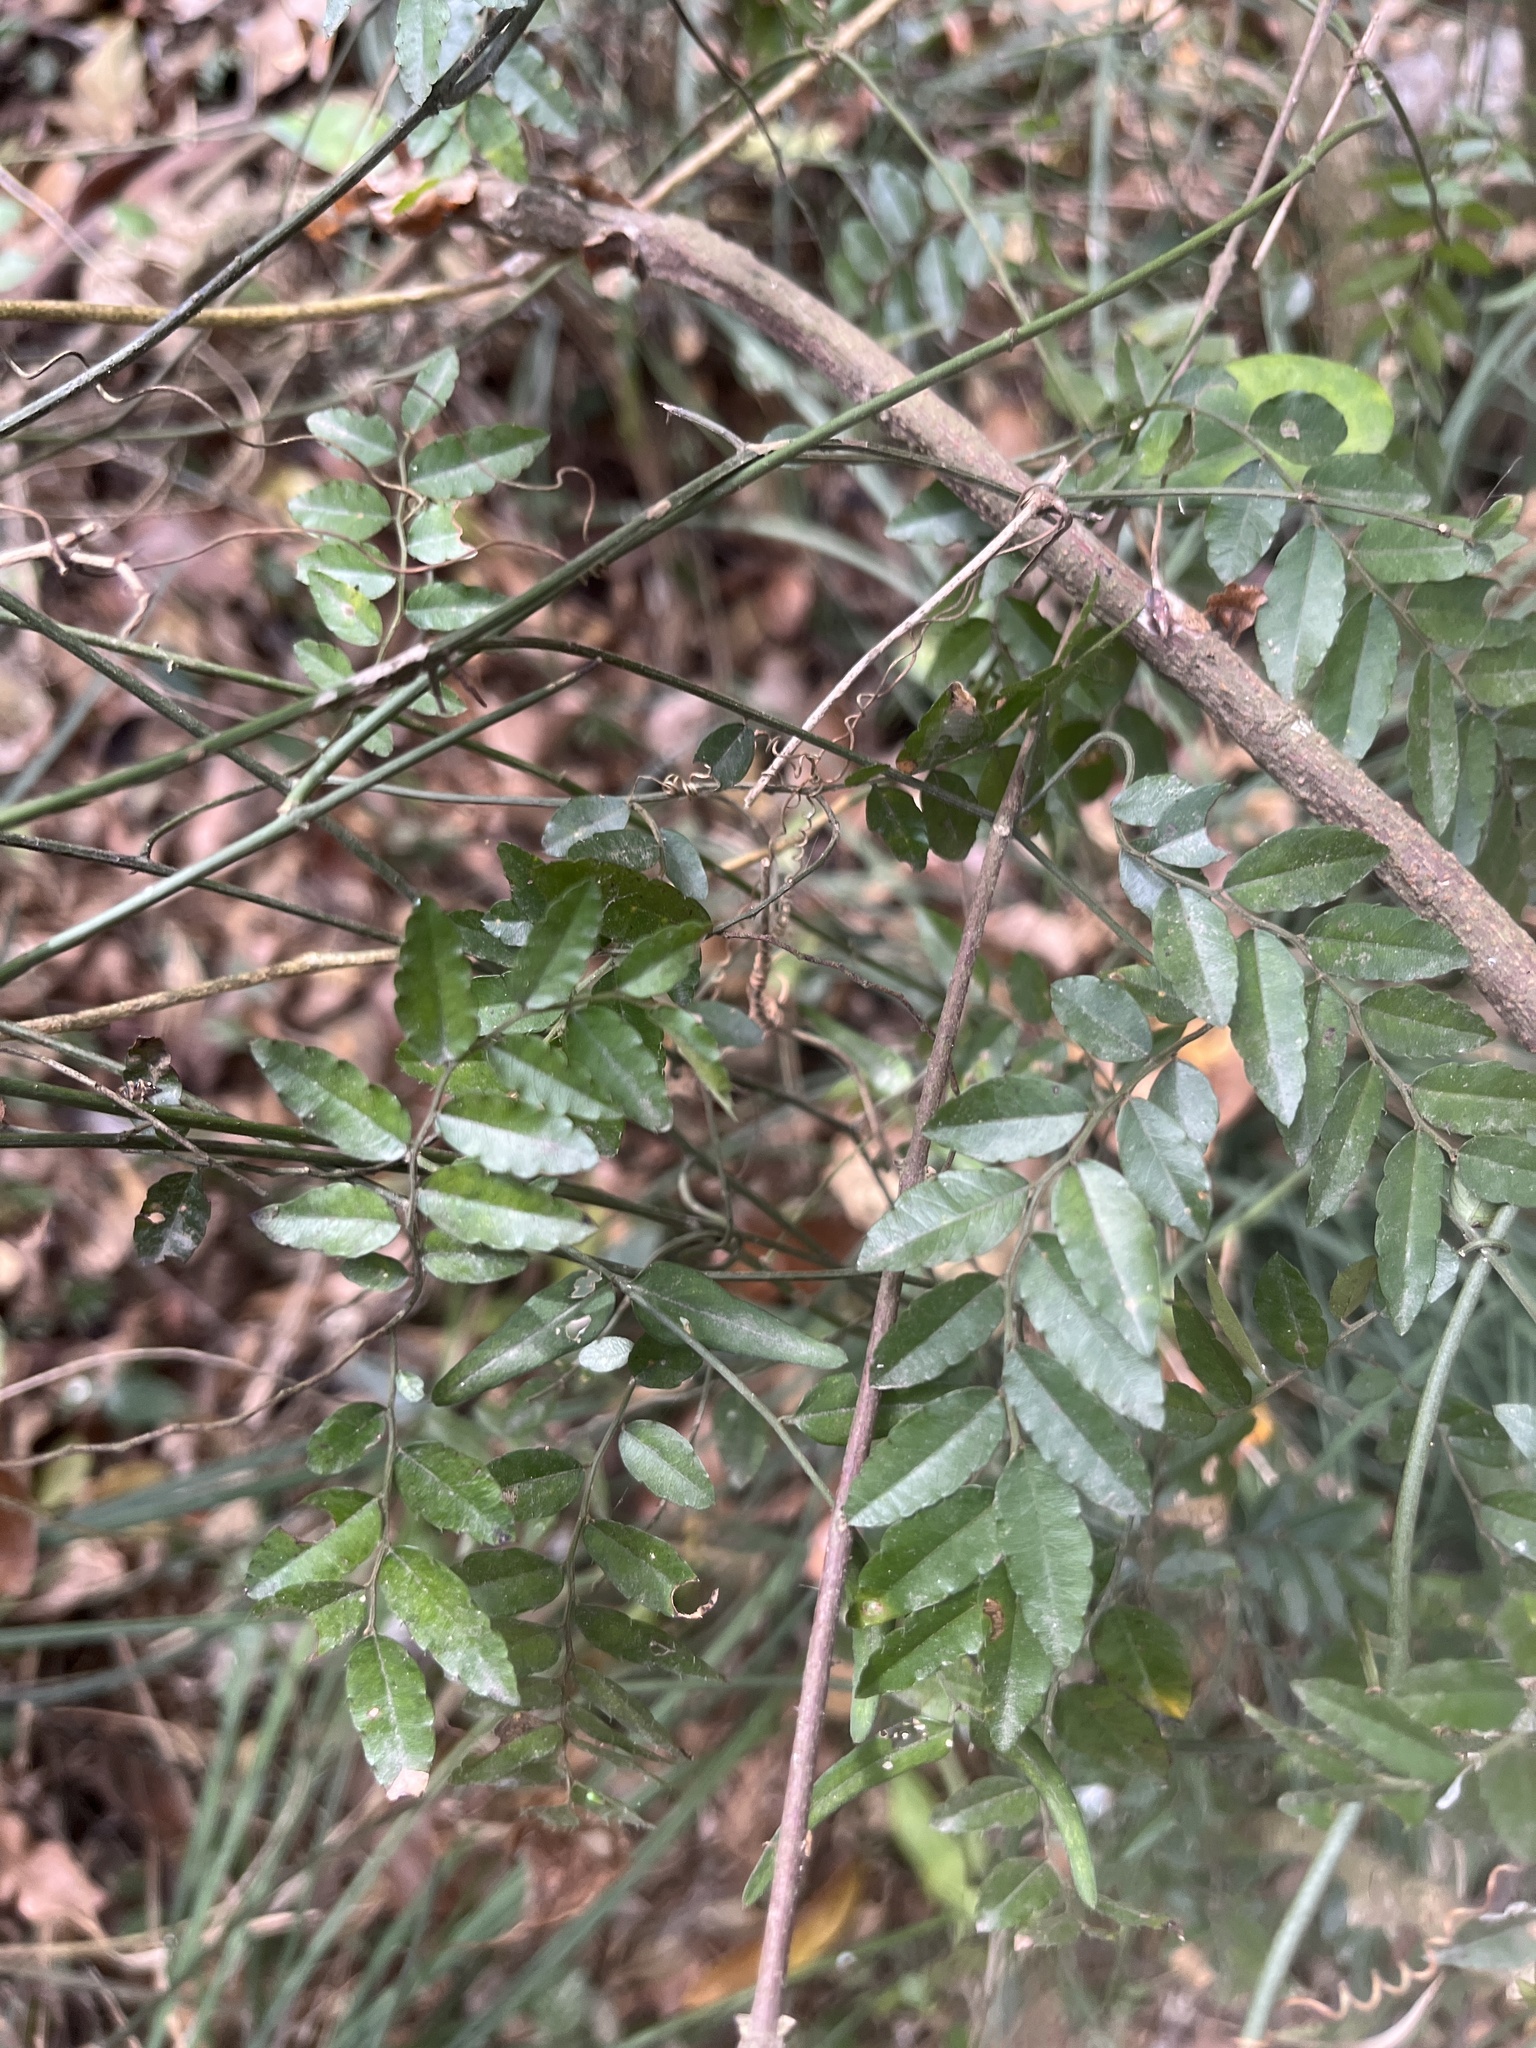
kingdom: Plantae
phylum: Tracheophyta
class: Magnoliopsida
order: Rosales
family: Rhamnaceae
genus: Ventilago
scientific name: Ventilago elegans
